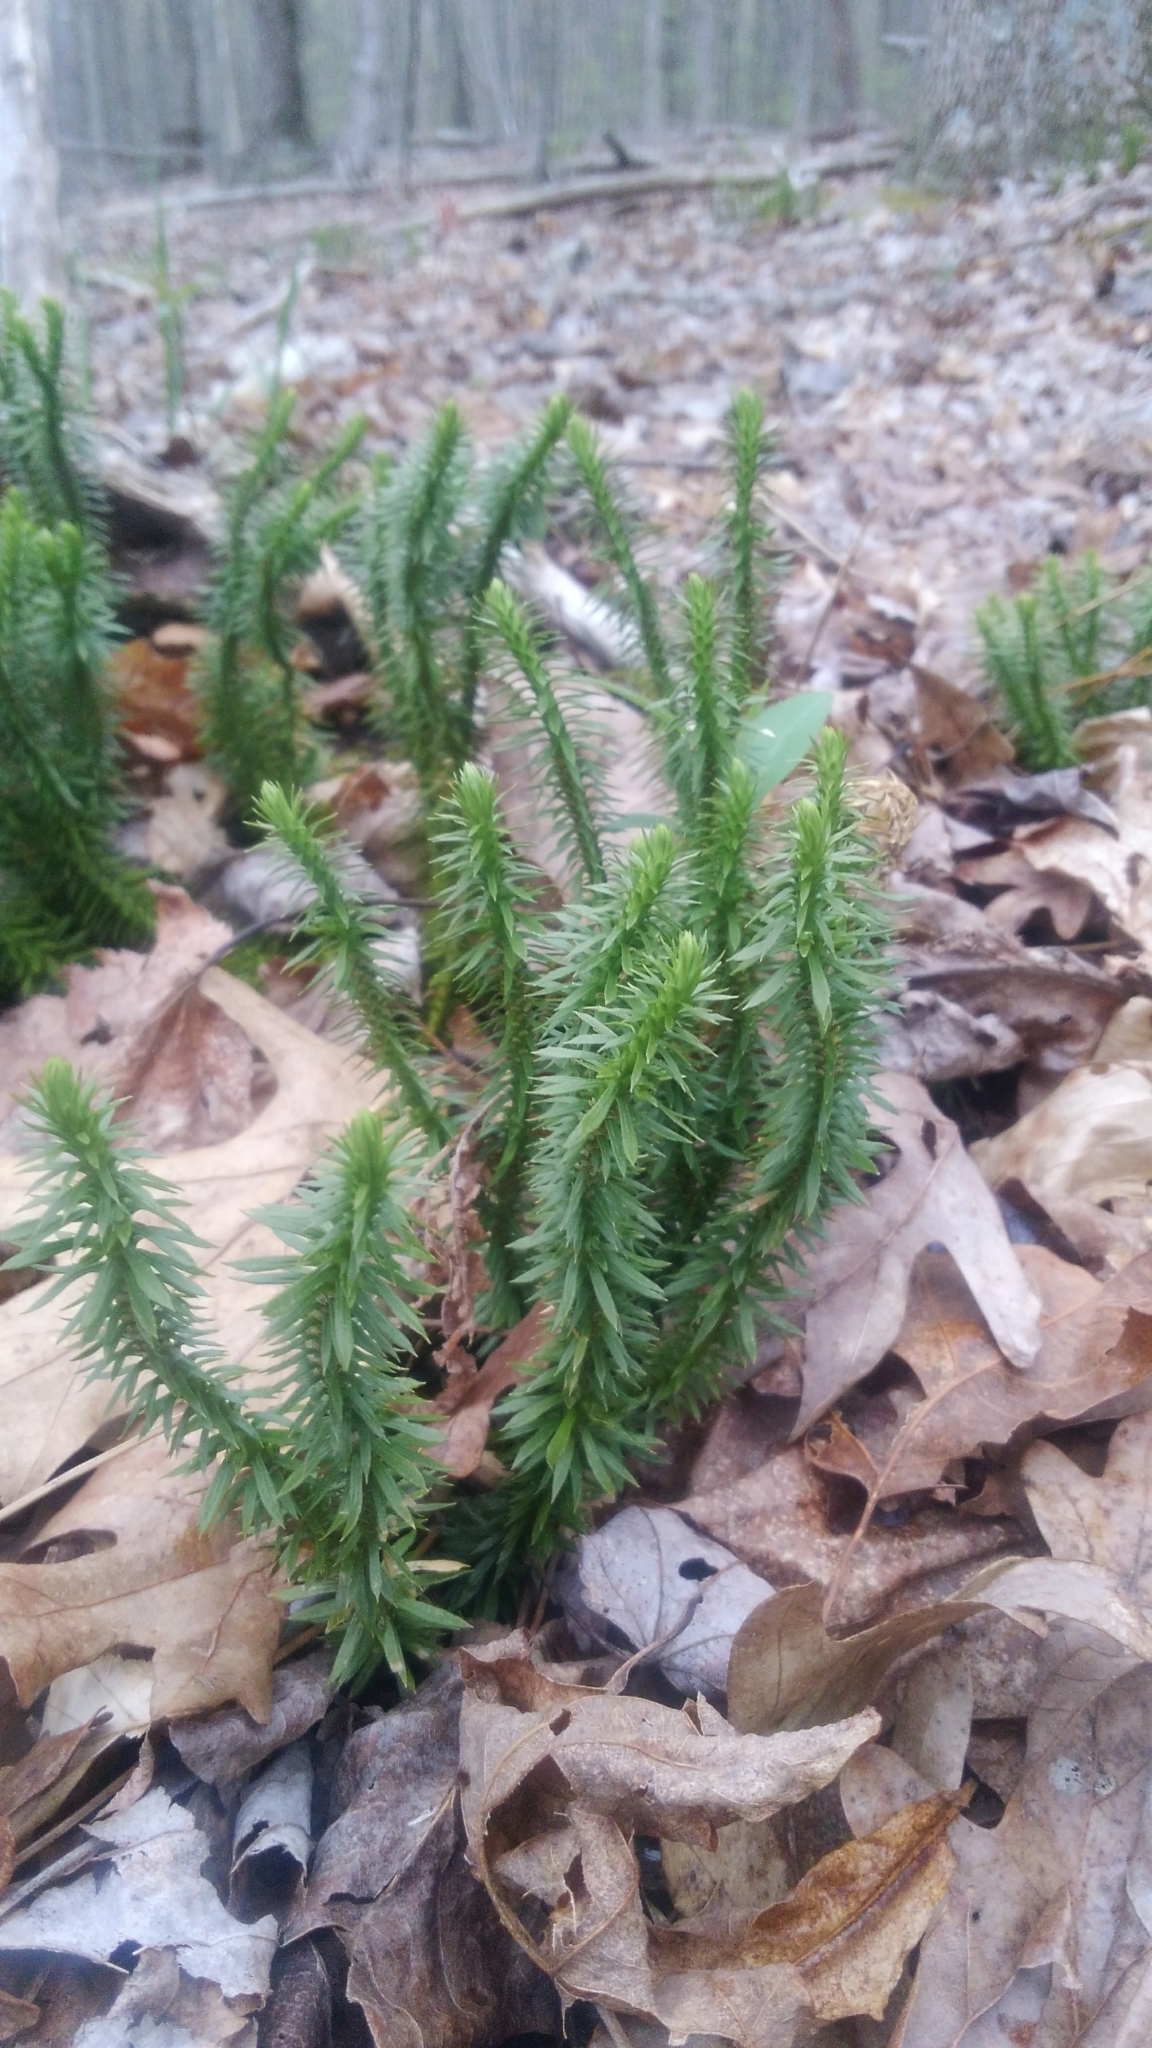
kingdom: Plantae
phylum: Tracheophyta
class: Lycopodiopsida
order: Lycopodiales
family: Lycopodiaceae
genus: Huperzia
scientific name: Huperzia lucidula
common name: Shining clubmoss
